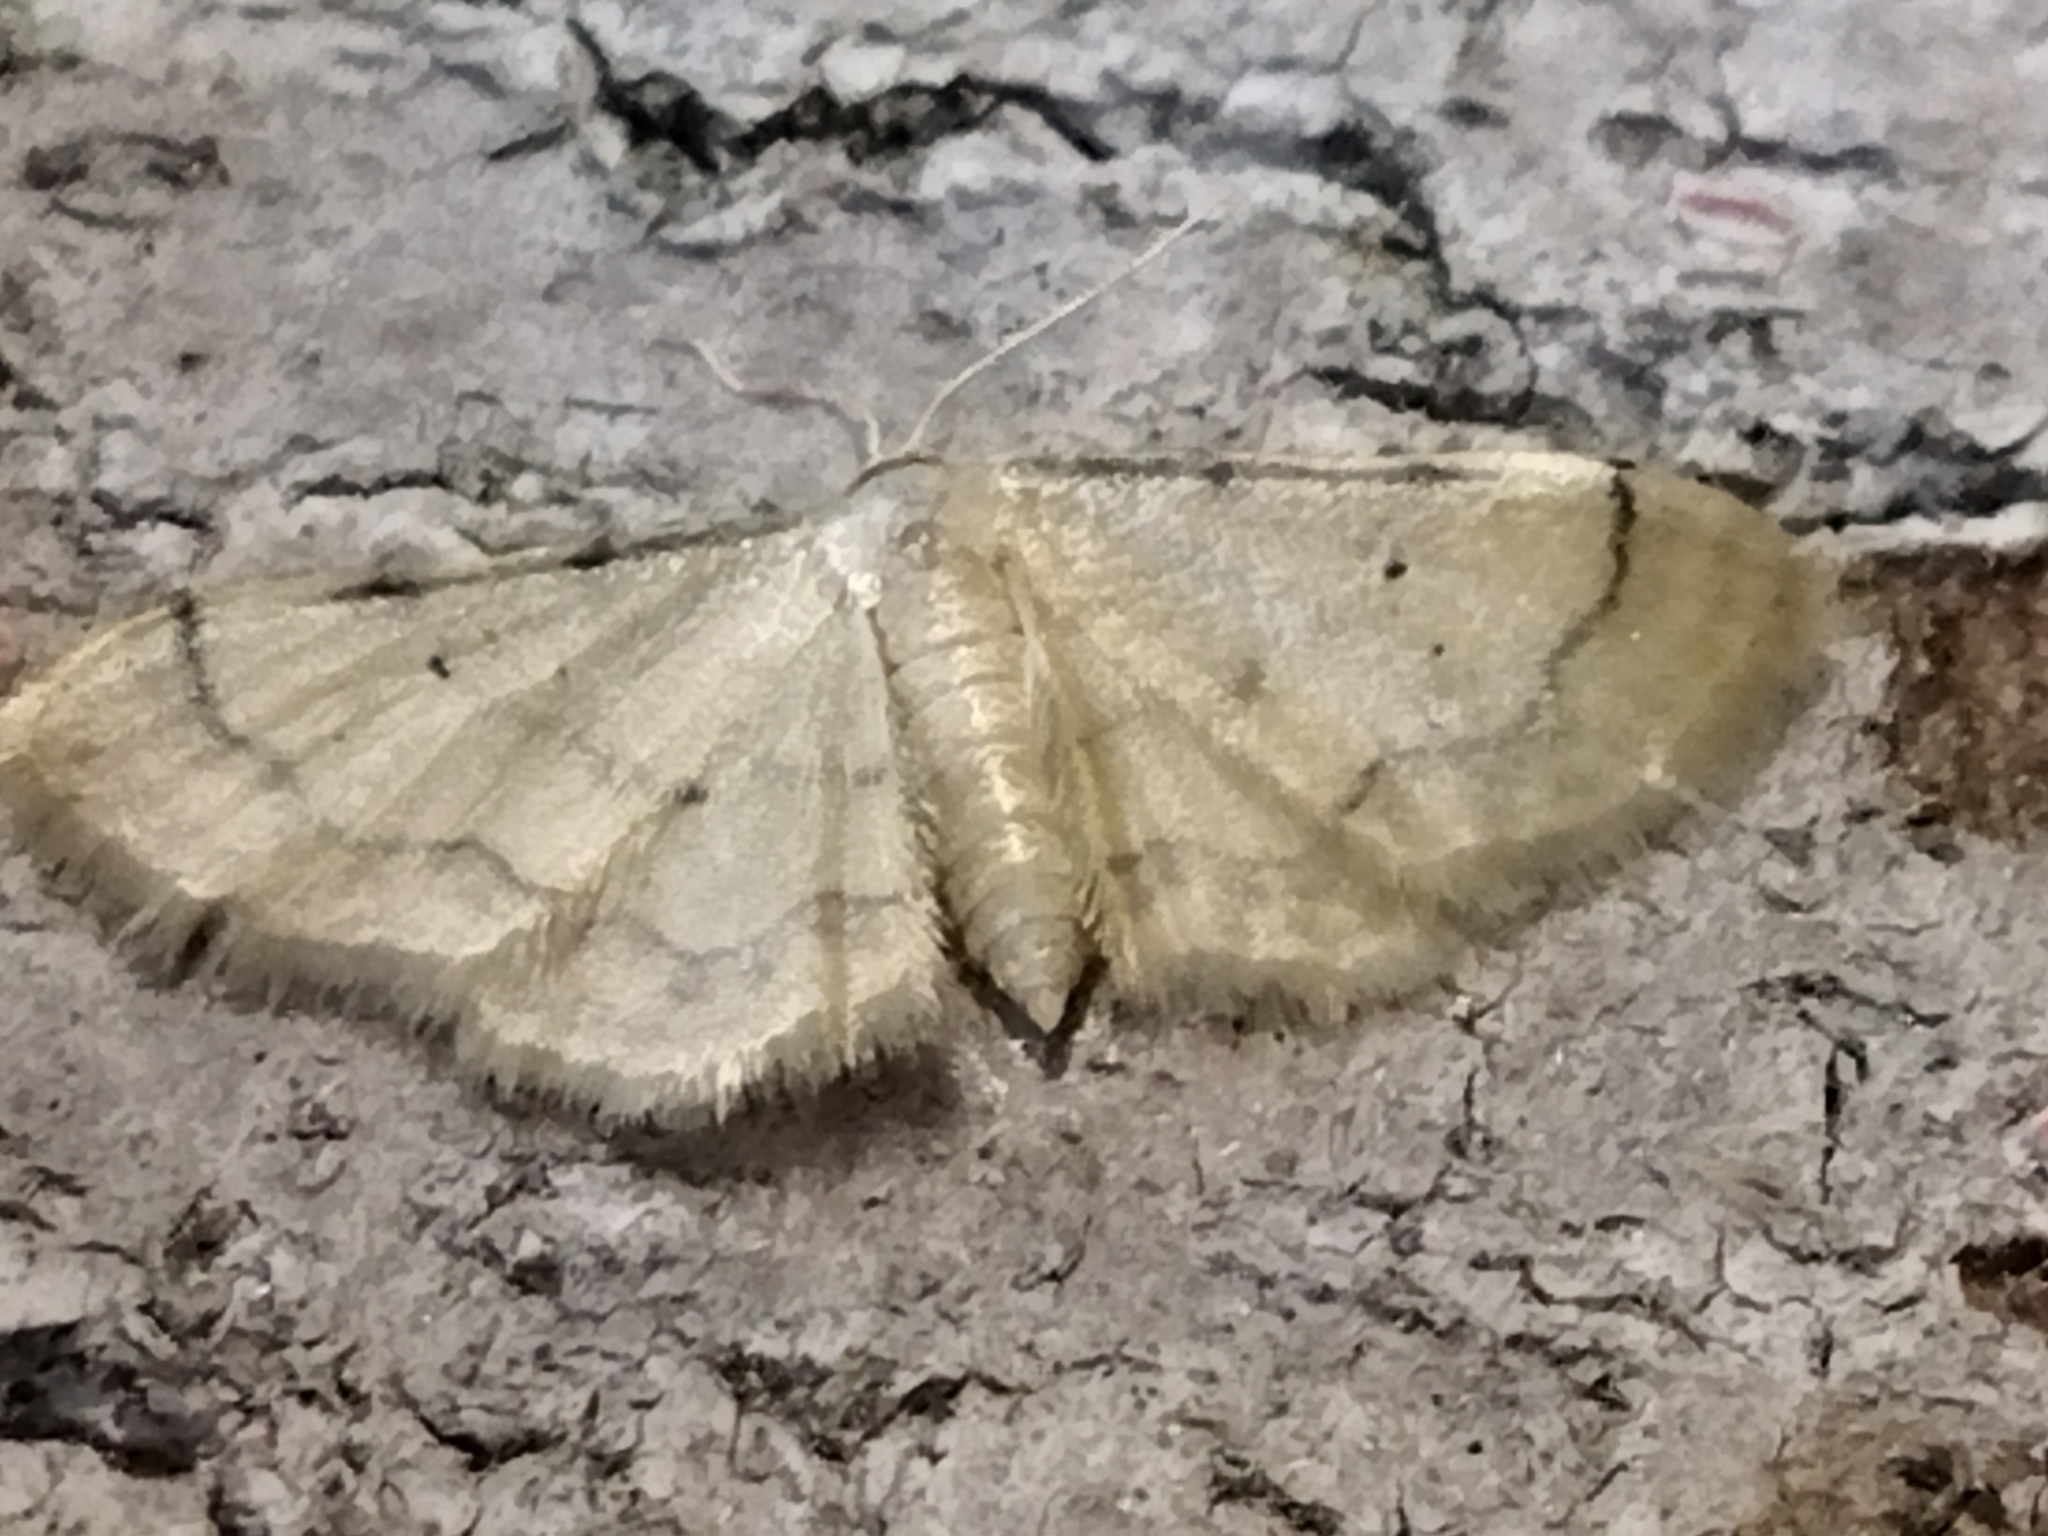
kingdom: Animalia
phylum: Arthropoda
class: Insecta
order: Lepidoptera
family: Geometridae
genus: Idaea
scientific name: Idaea politaria
